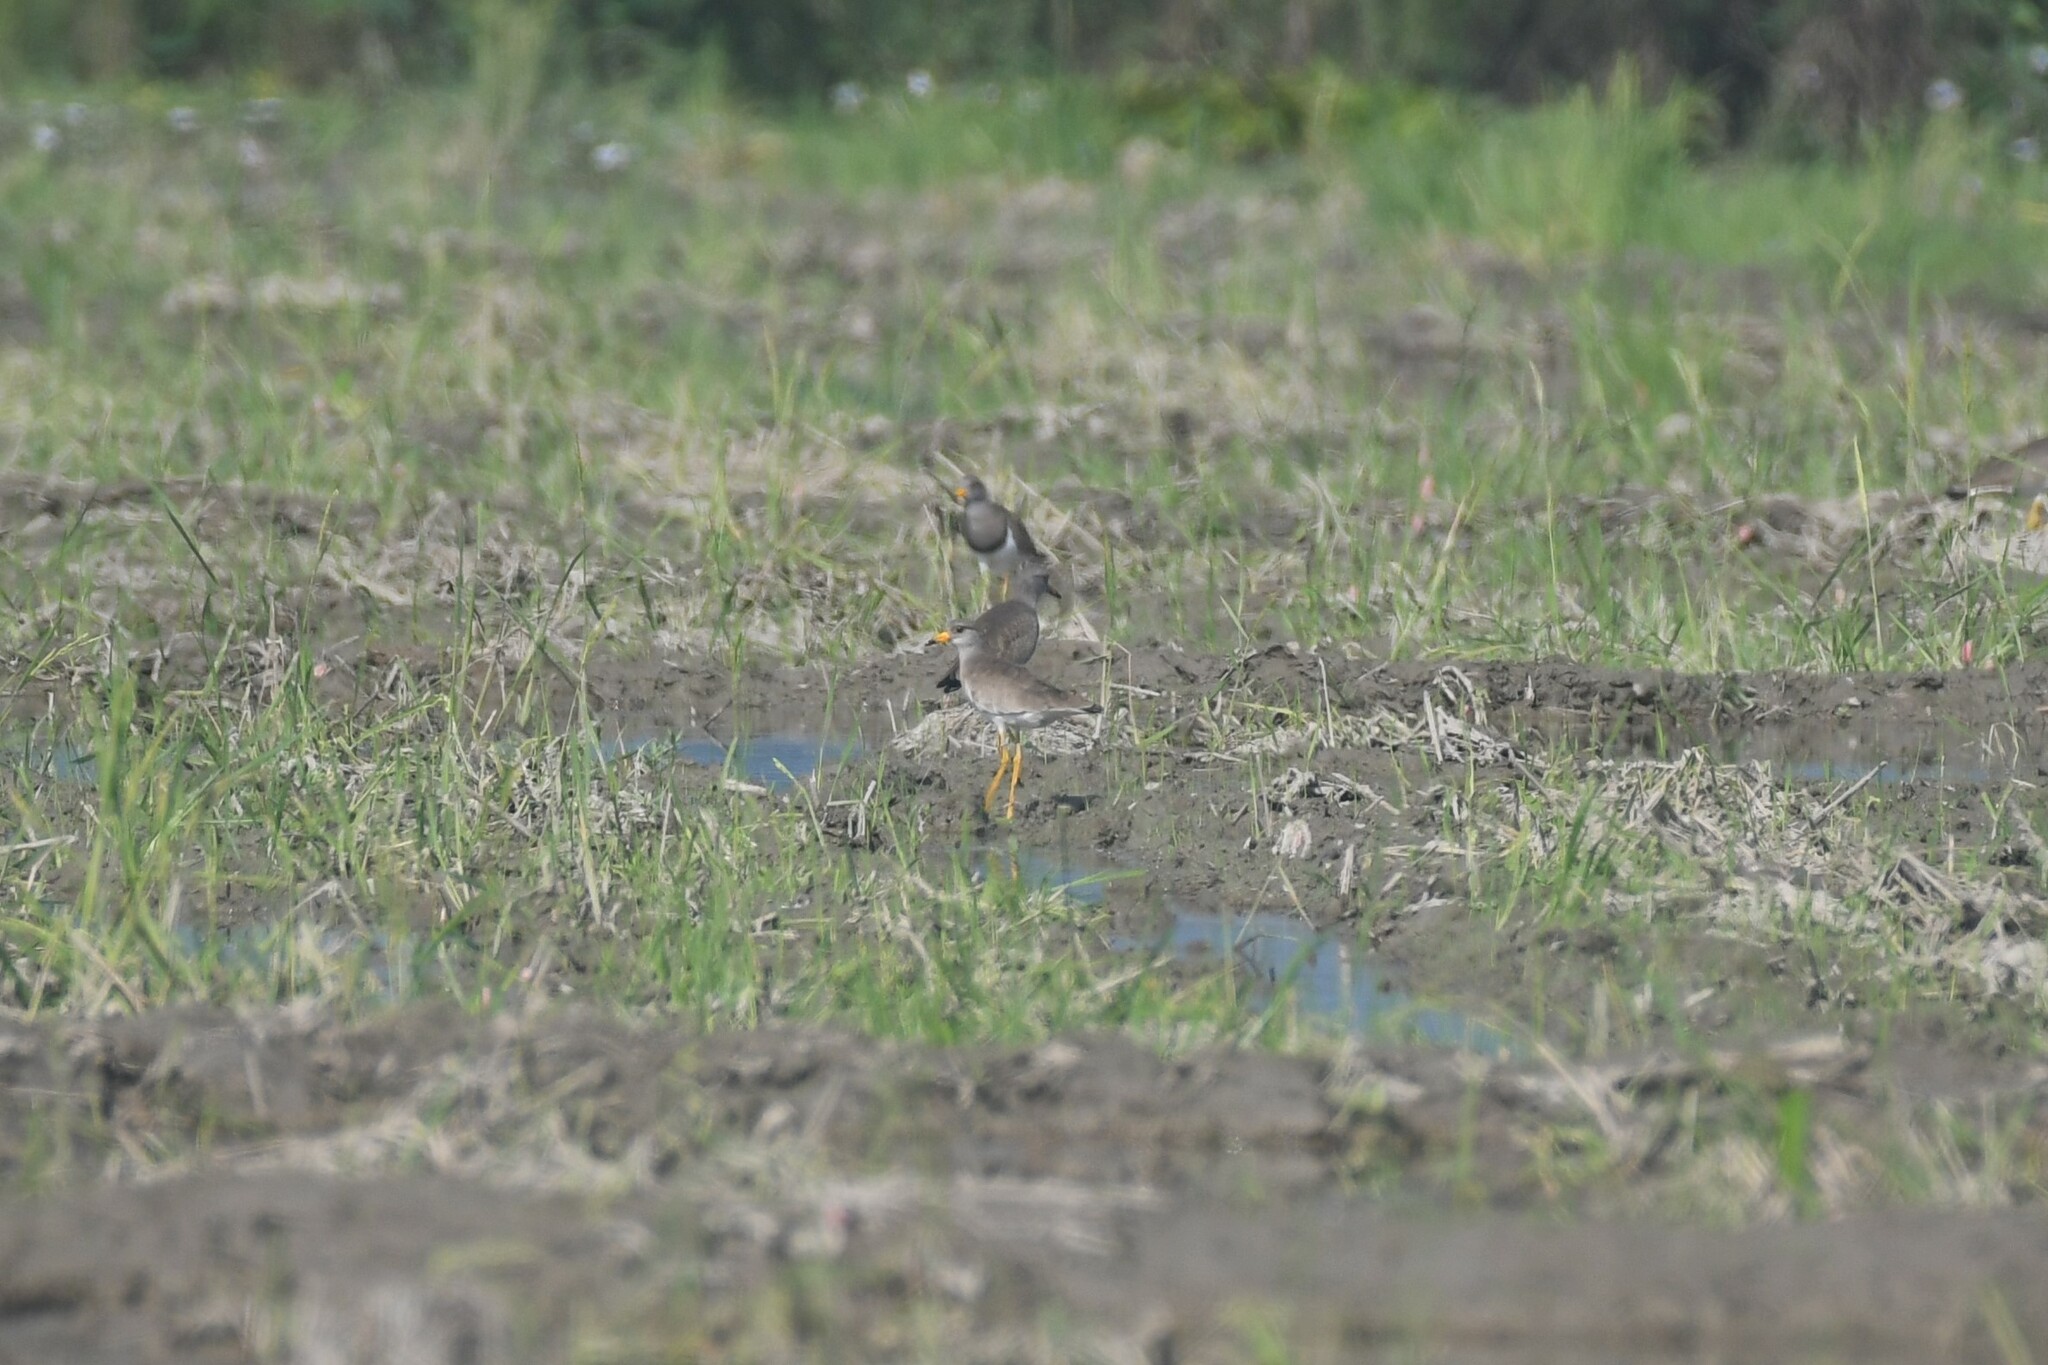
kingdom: Animalia
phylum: Chordata
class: Aves
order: Charadriiformes
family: Charadriidae
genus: Vanellus
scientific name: Vanellus cinereus
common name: Grey-headed lapwing
